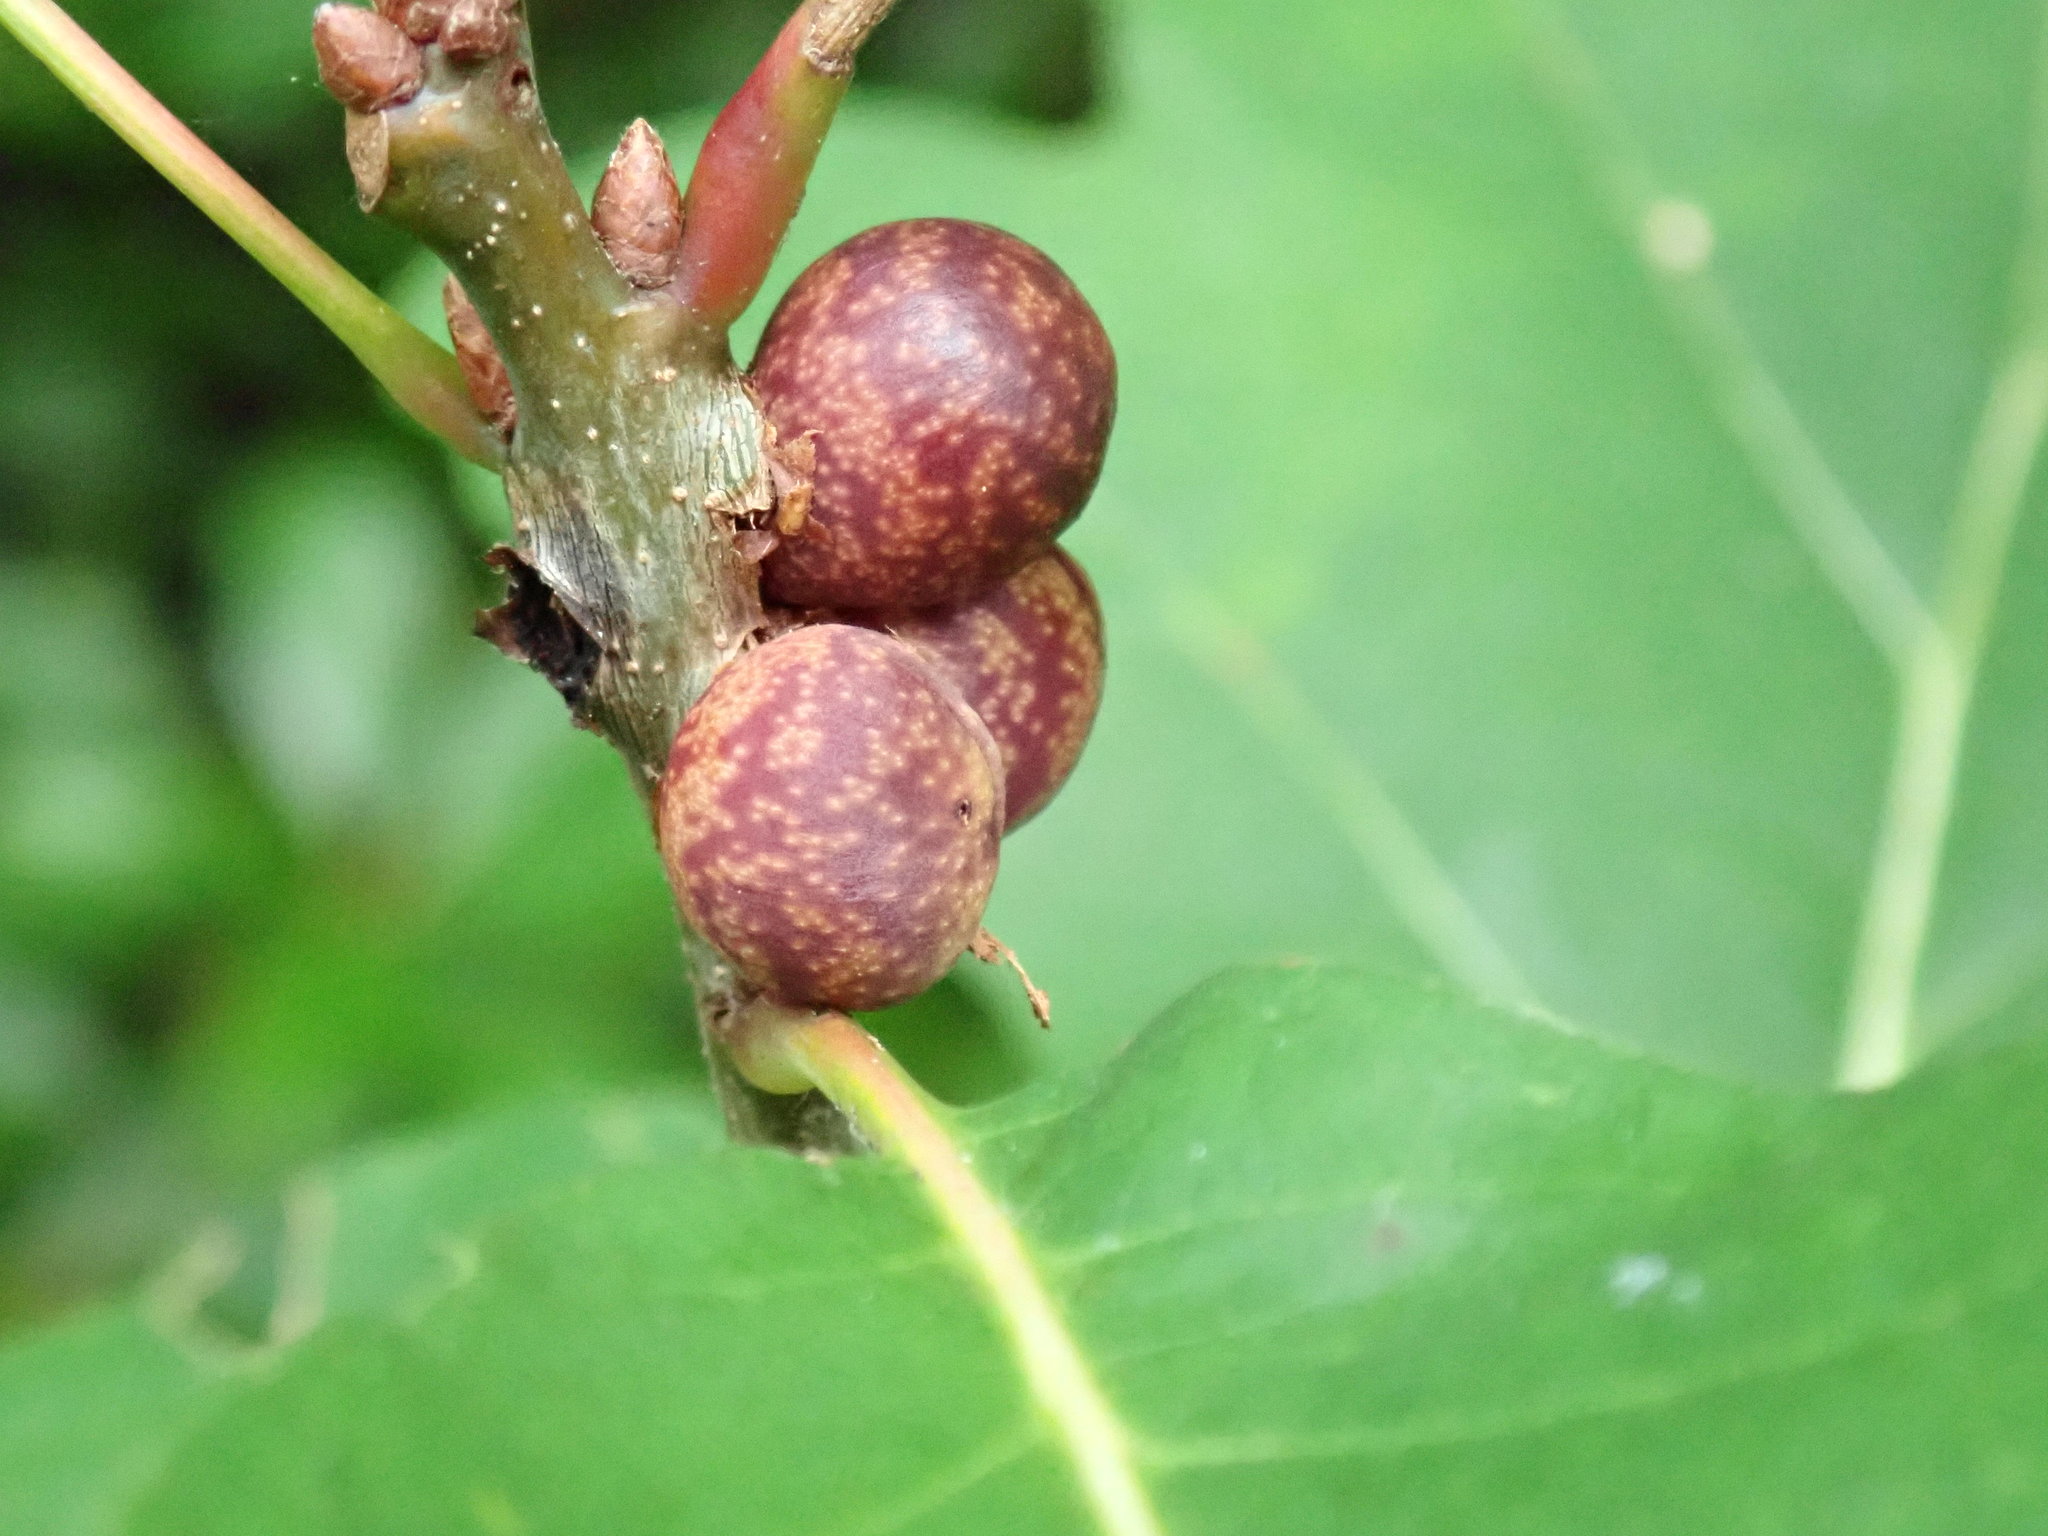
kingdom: Animalia
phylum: Arthropoda
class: Insecta
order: Hymenoptera
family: Cynipidae
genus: Kokkocynips
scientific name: Kokkocynips imbricariae
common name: Banded bullet gall wasp
